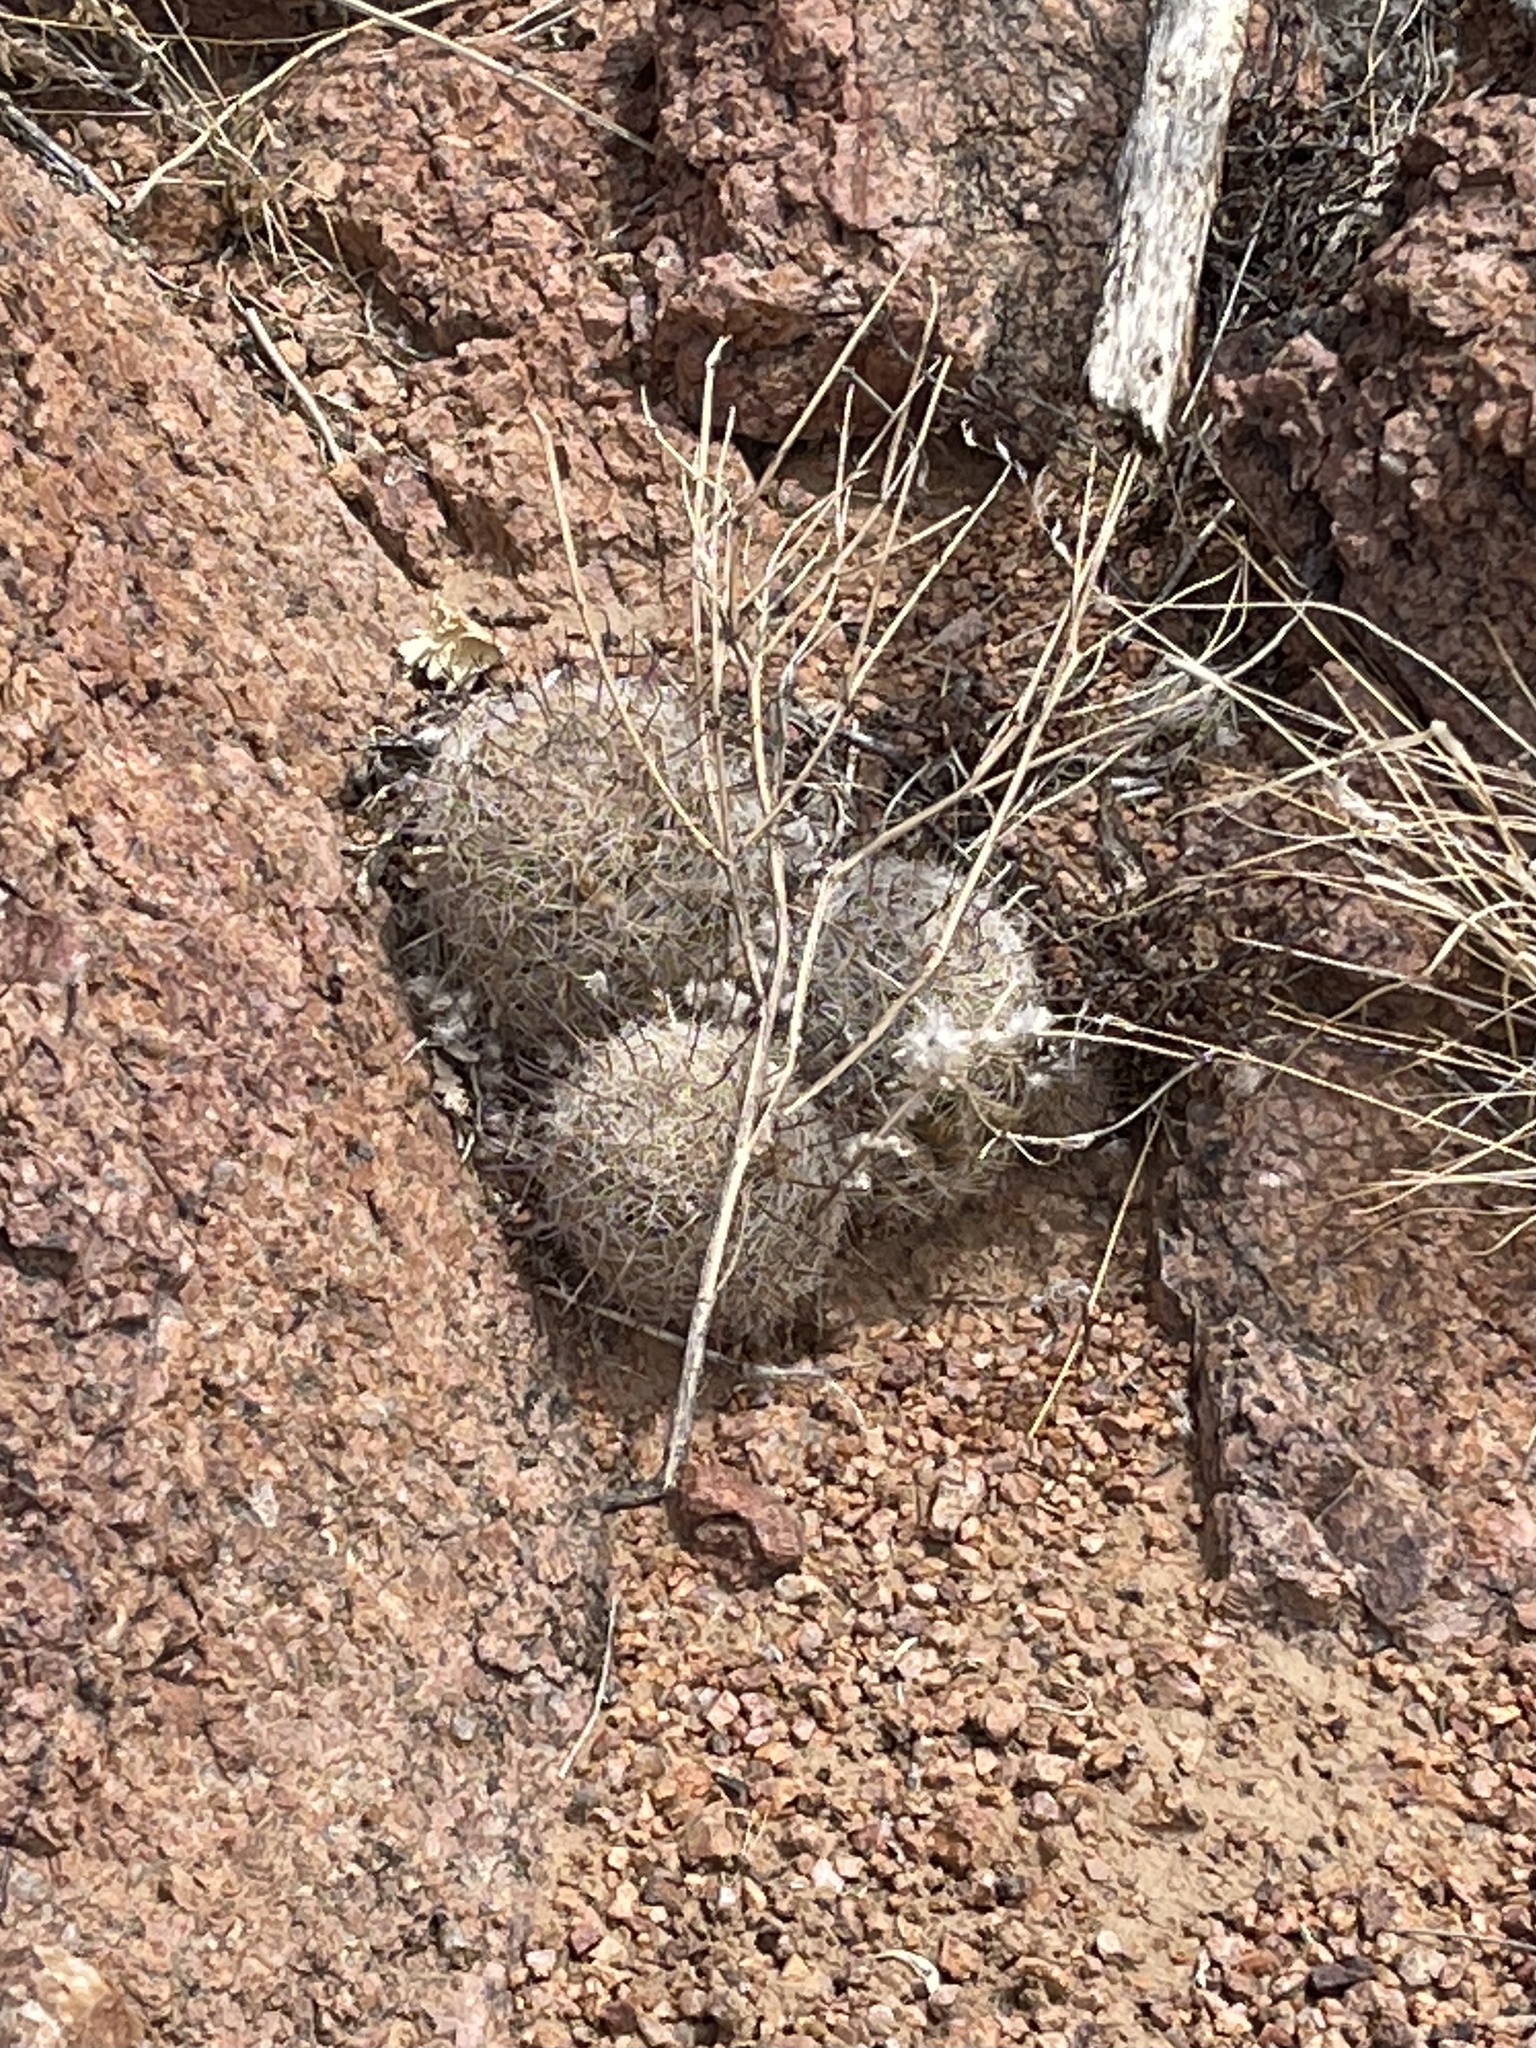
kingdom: Plantae
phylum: Tracheophyta
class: Magnoliopsida
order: Caryophyllales
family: Cactaceae
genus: Cochemiea
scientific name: Cochemiea grahamii
